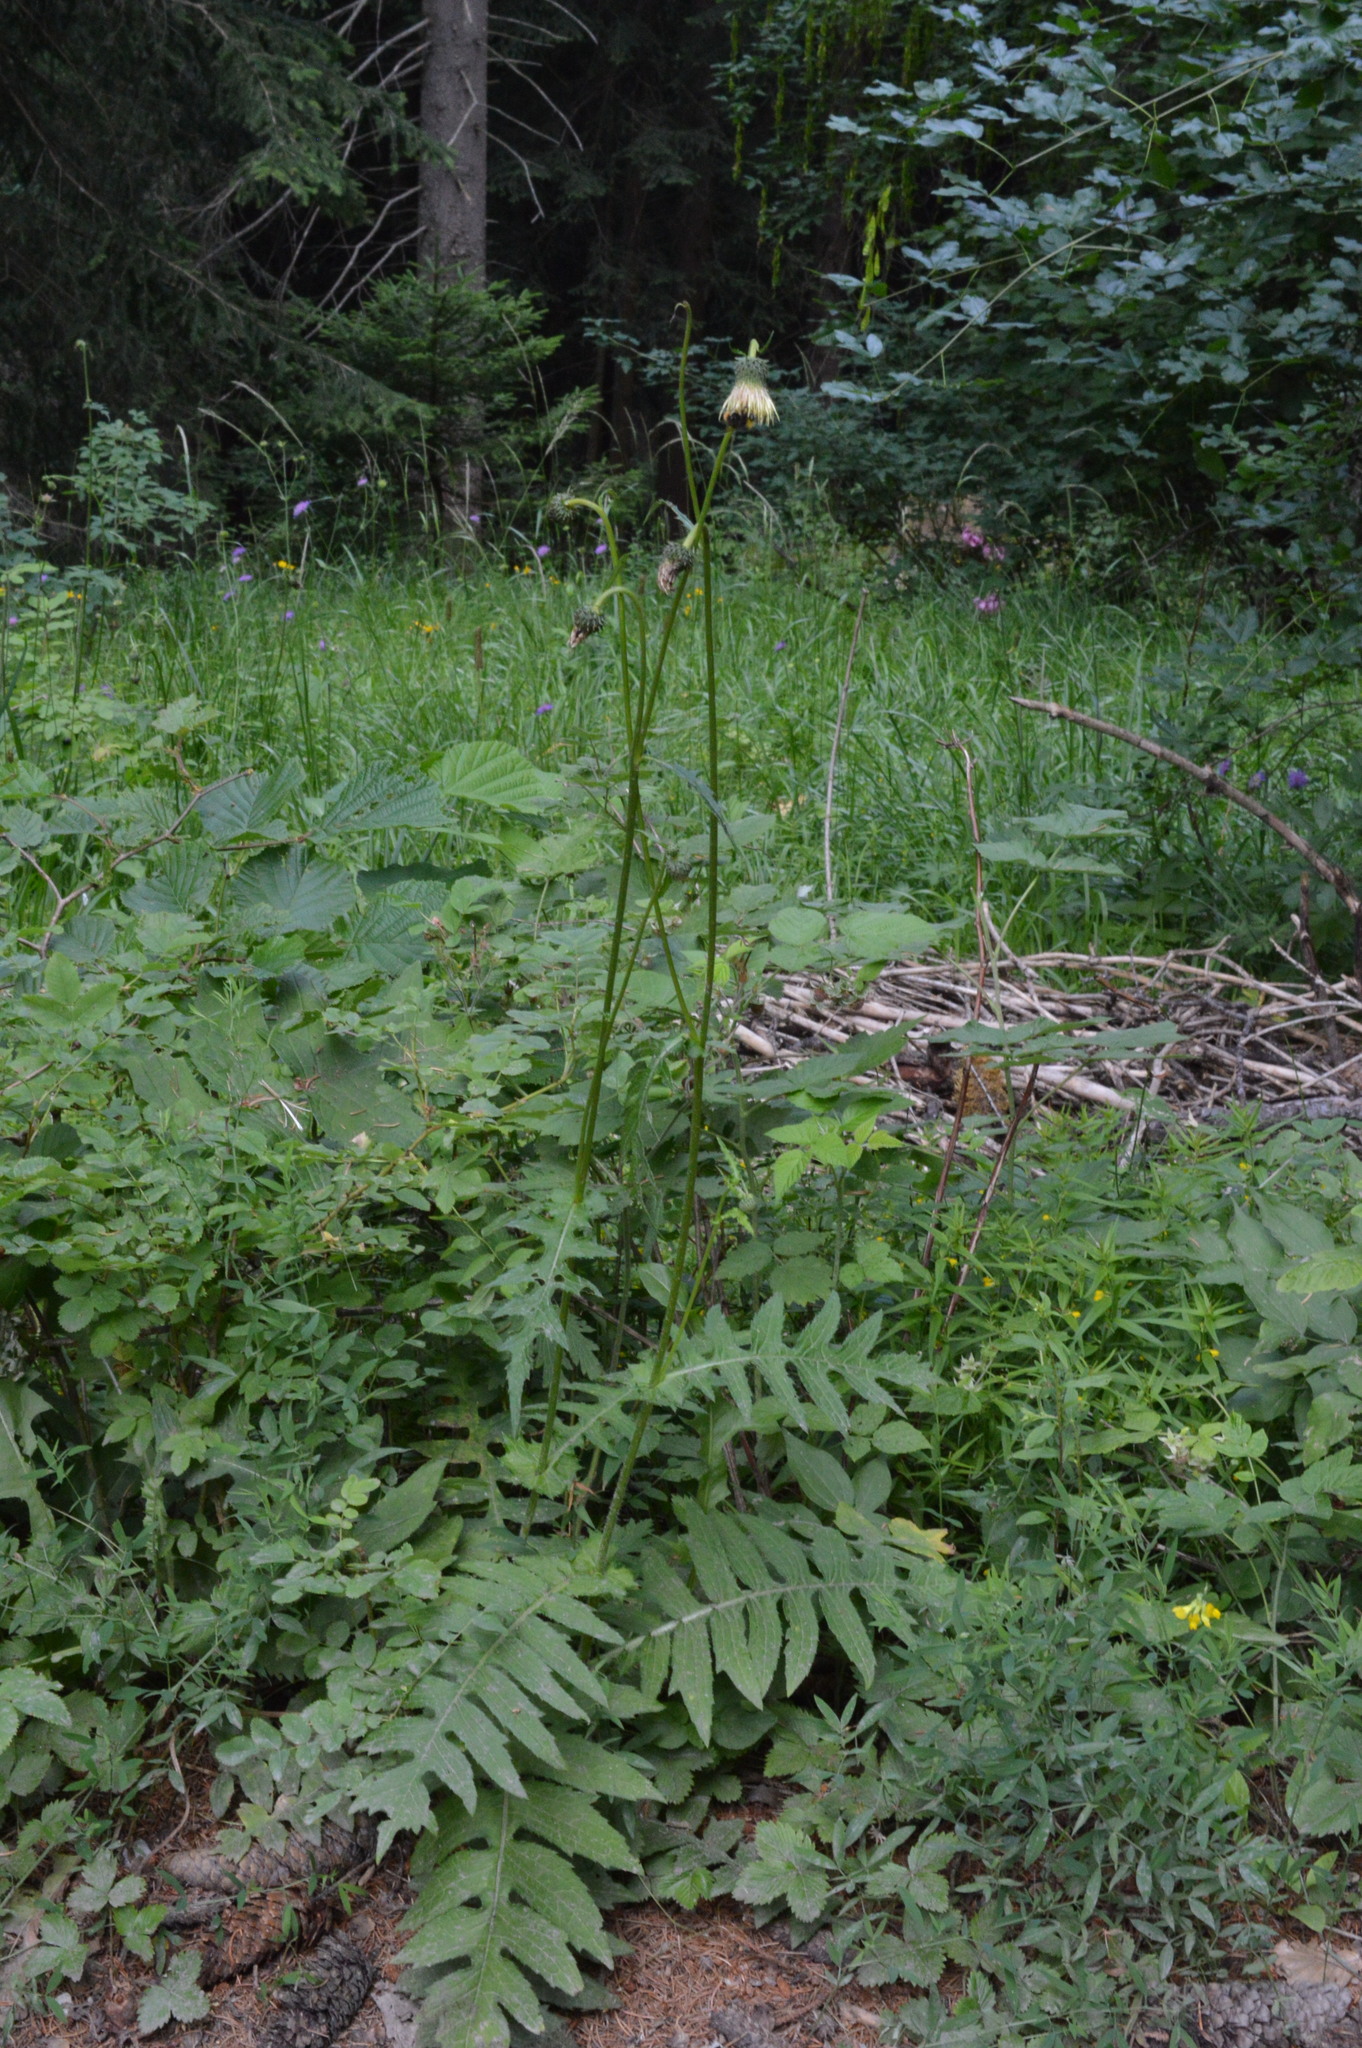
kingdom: Plantae
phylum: Tracheophyta
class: Magnoliopsida
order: Asterales
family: Asteraceae
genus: Cirsium
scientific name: Cirsium erisithales
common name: Yellow thistle
